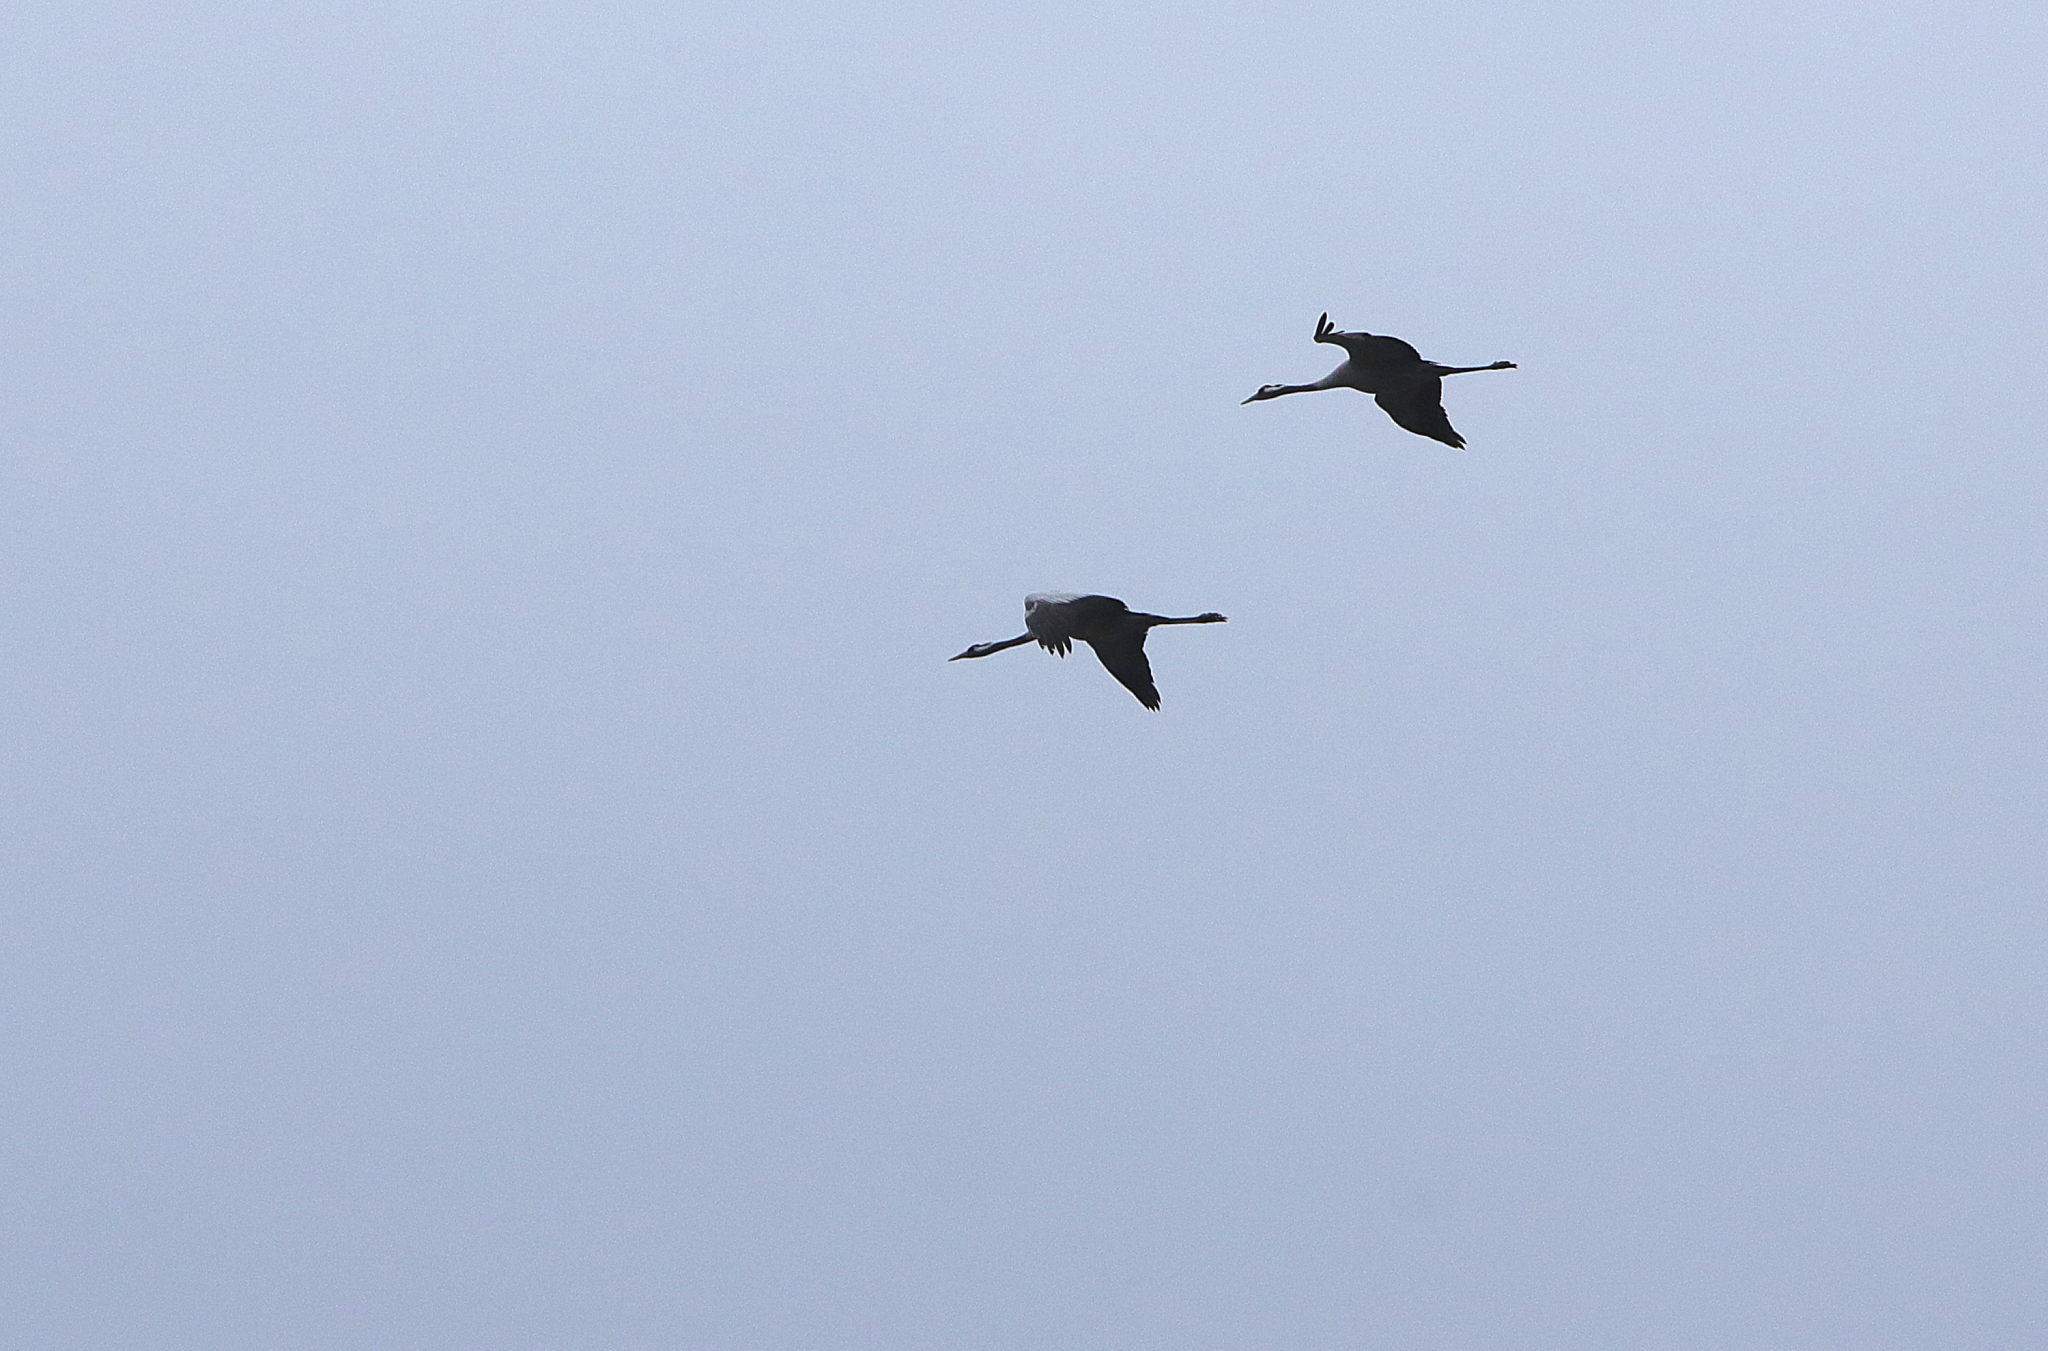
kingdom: Animalia
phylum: Chordata
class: Aves
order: Gruiformes
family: Gruidae
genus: Grus
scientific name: Grus grus
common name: Common crane
